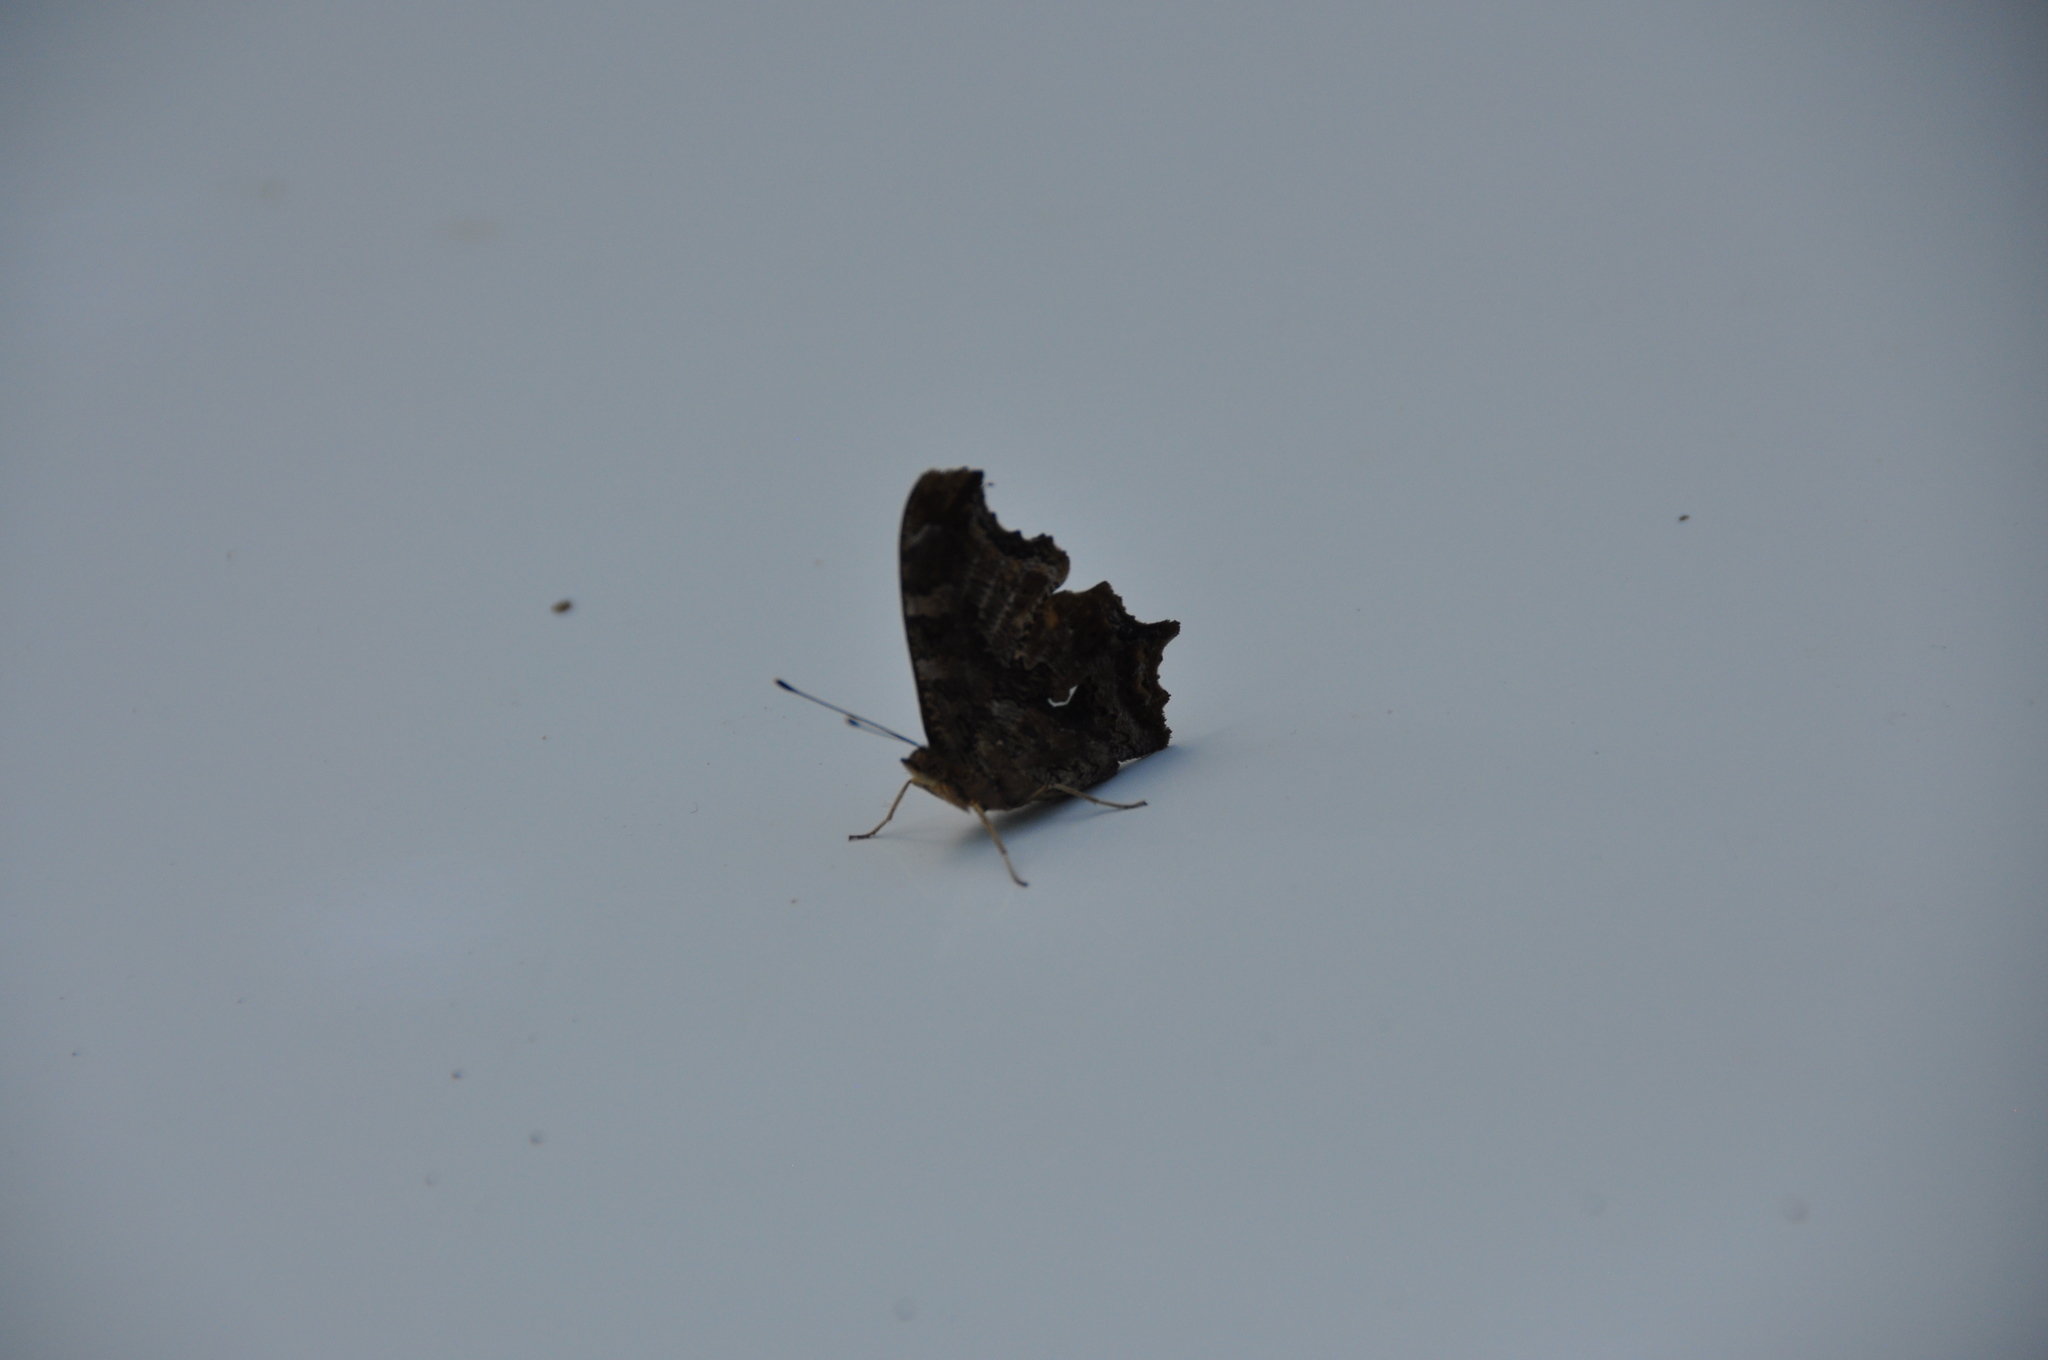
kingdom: Animalia
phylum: Arthropoda
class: Insecta
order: Lepidoptera
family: Nymphalidae
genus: Polygonia
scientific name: Polygonia comma
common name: Eastern comma
